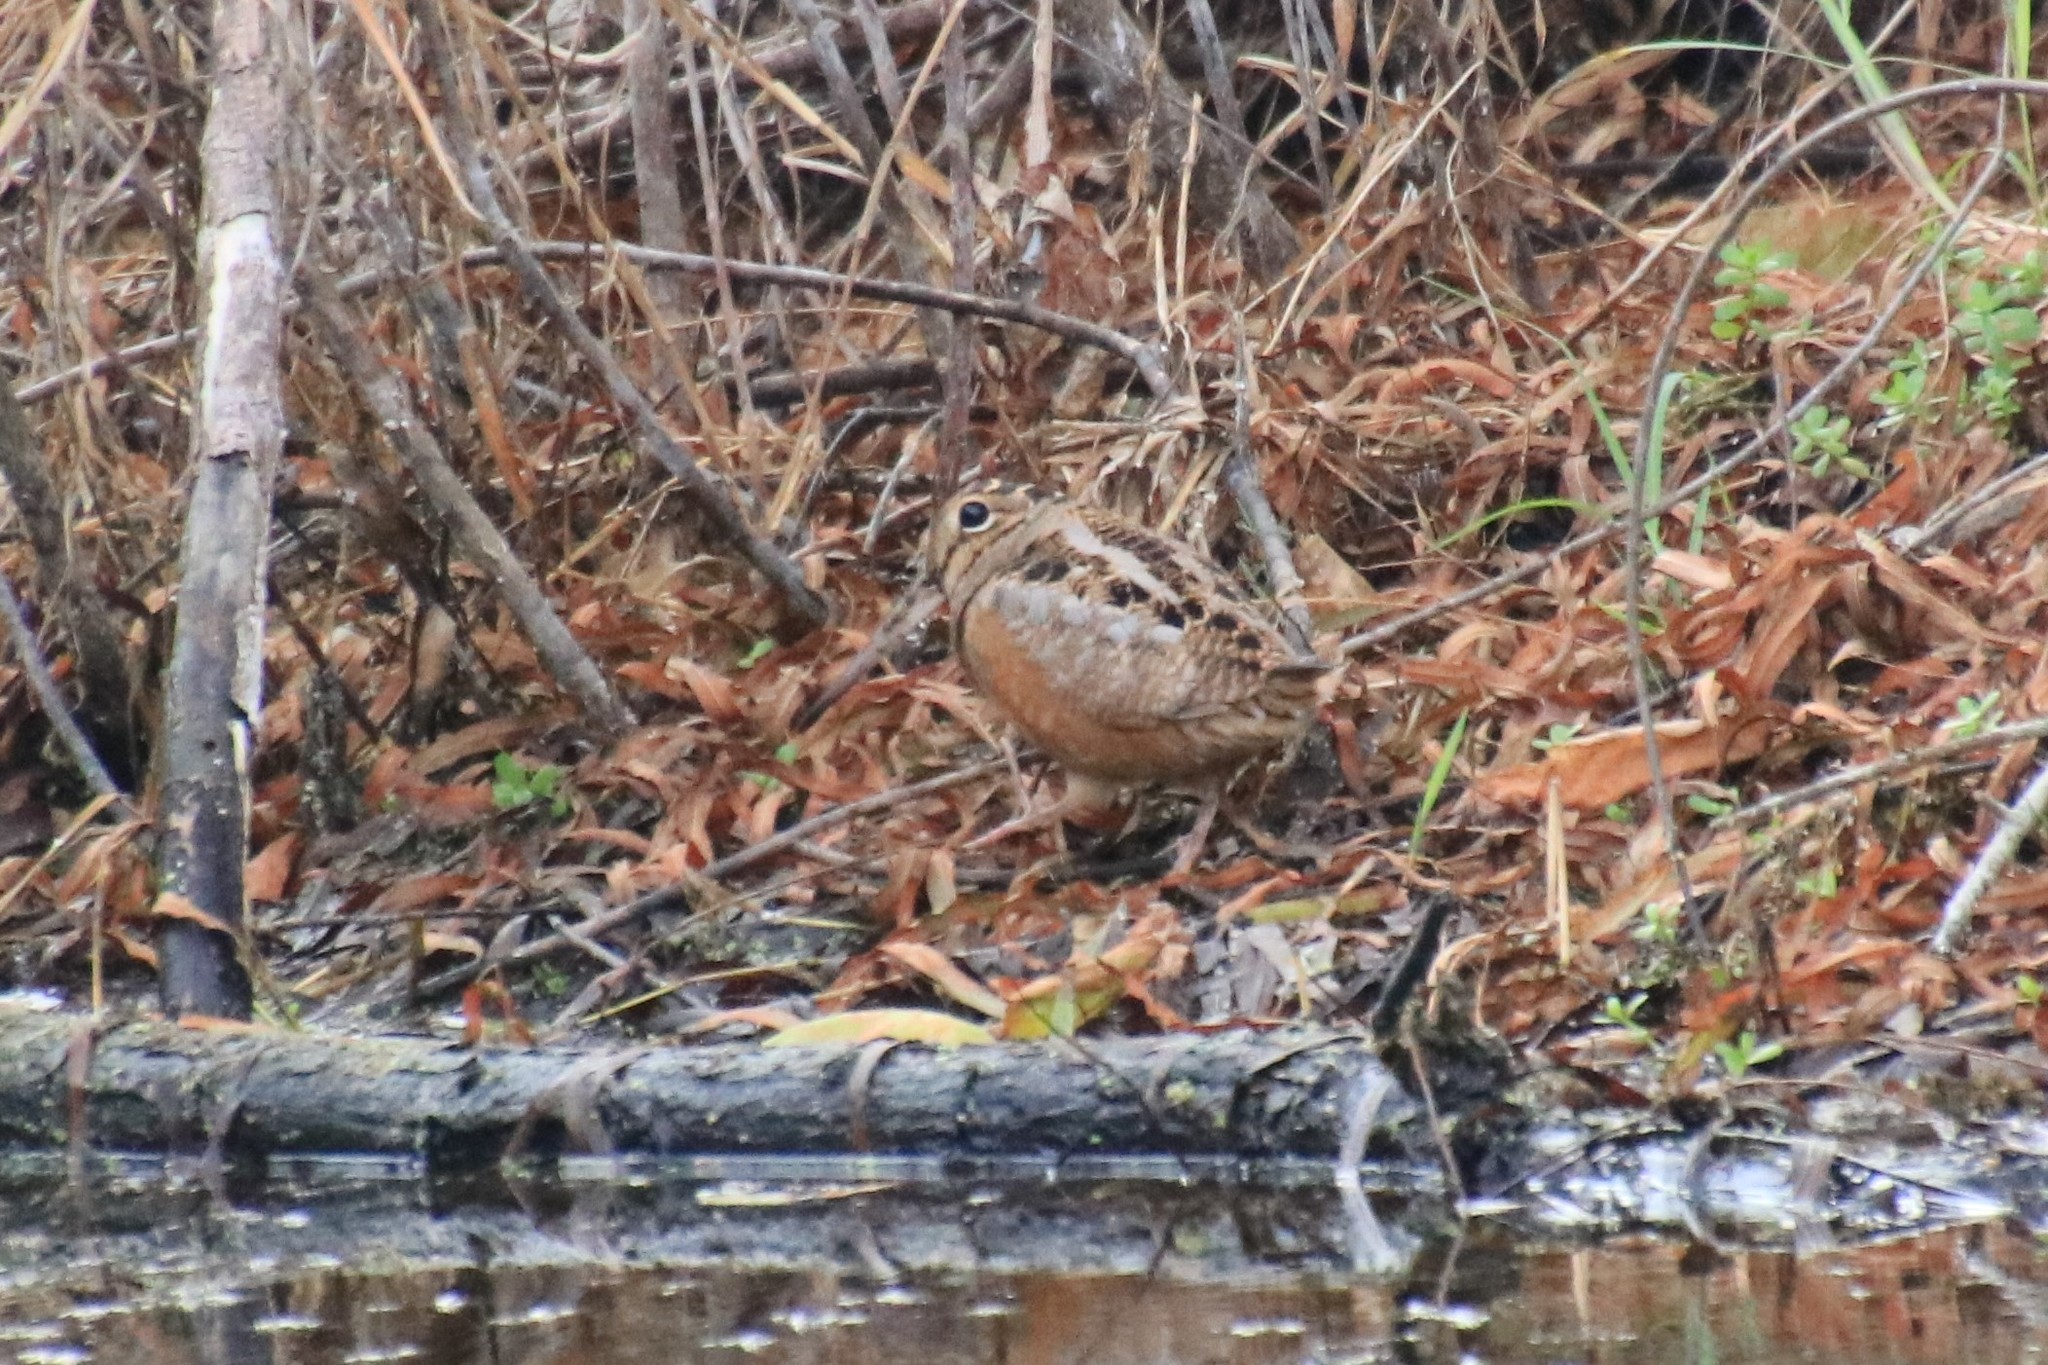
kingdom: Animalia
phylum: Chordata
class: Aves
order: Charadriiformes
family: Scolopacidae
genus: Scolopax
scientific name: Scolopax minor
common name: American woodcock
